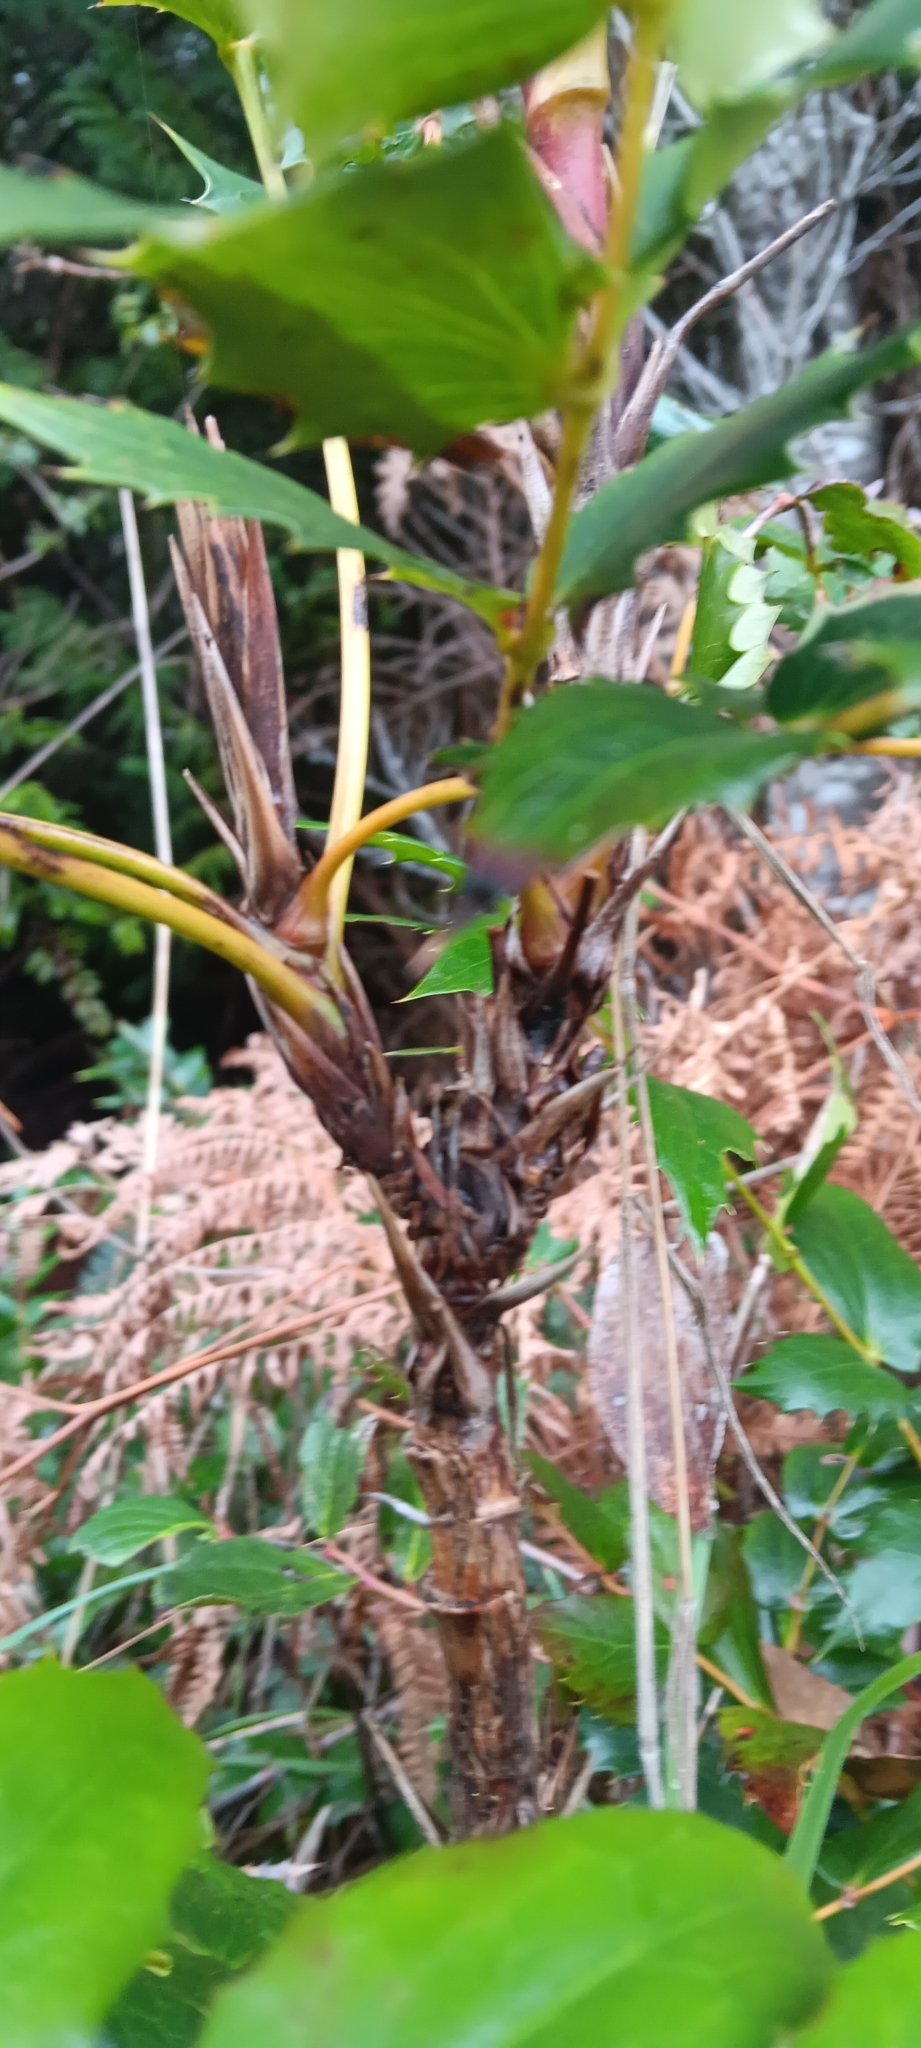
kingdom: Plantae
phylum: Tracheophyta
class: Magnoliopsida
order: Ranunculales
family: Berberidaceae
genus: Mahonia
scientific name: Mahonia nervosa
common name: Cascade oregon-grape
